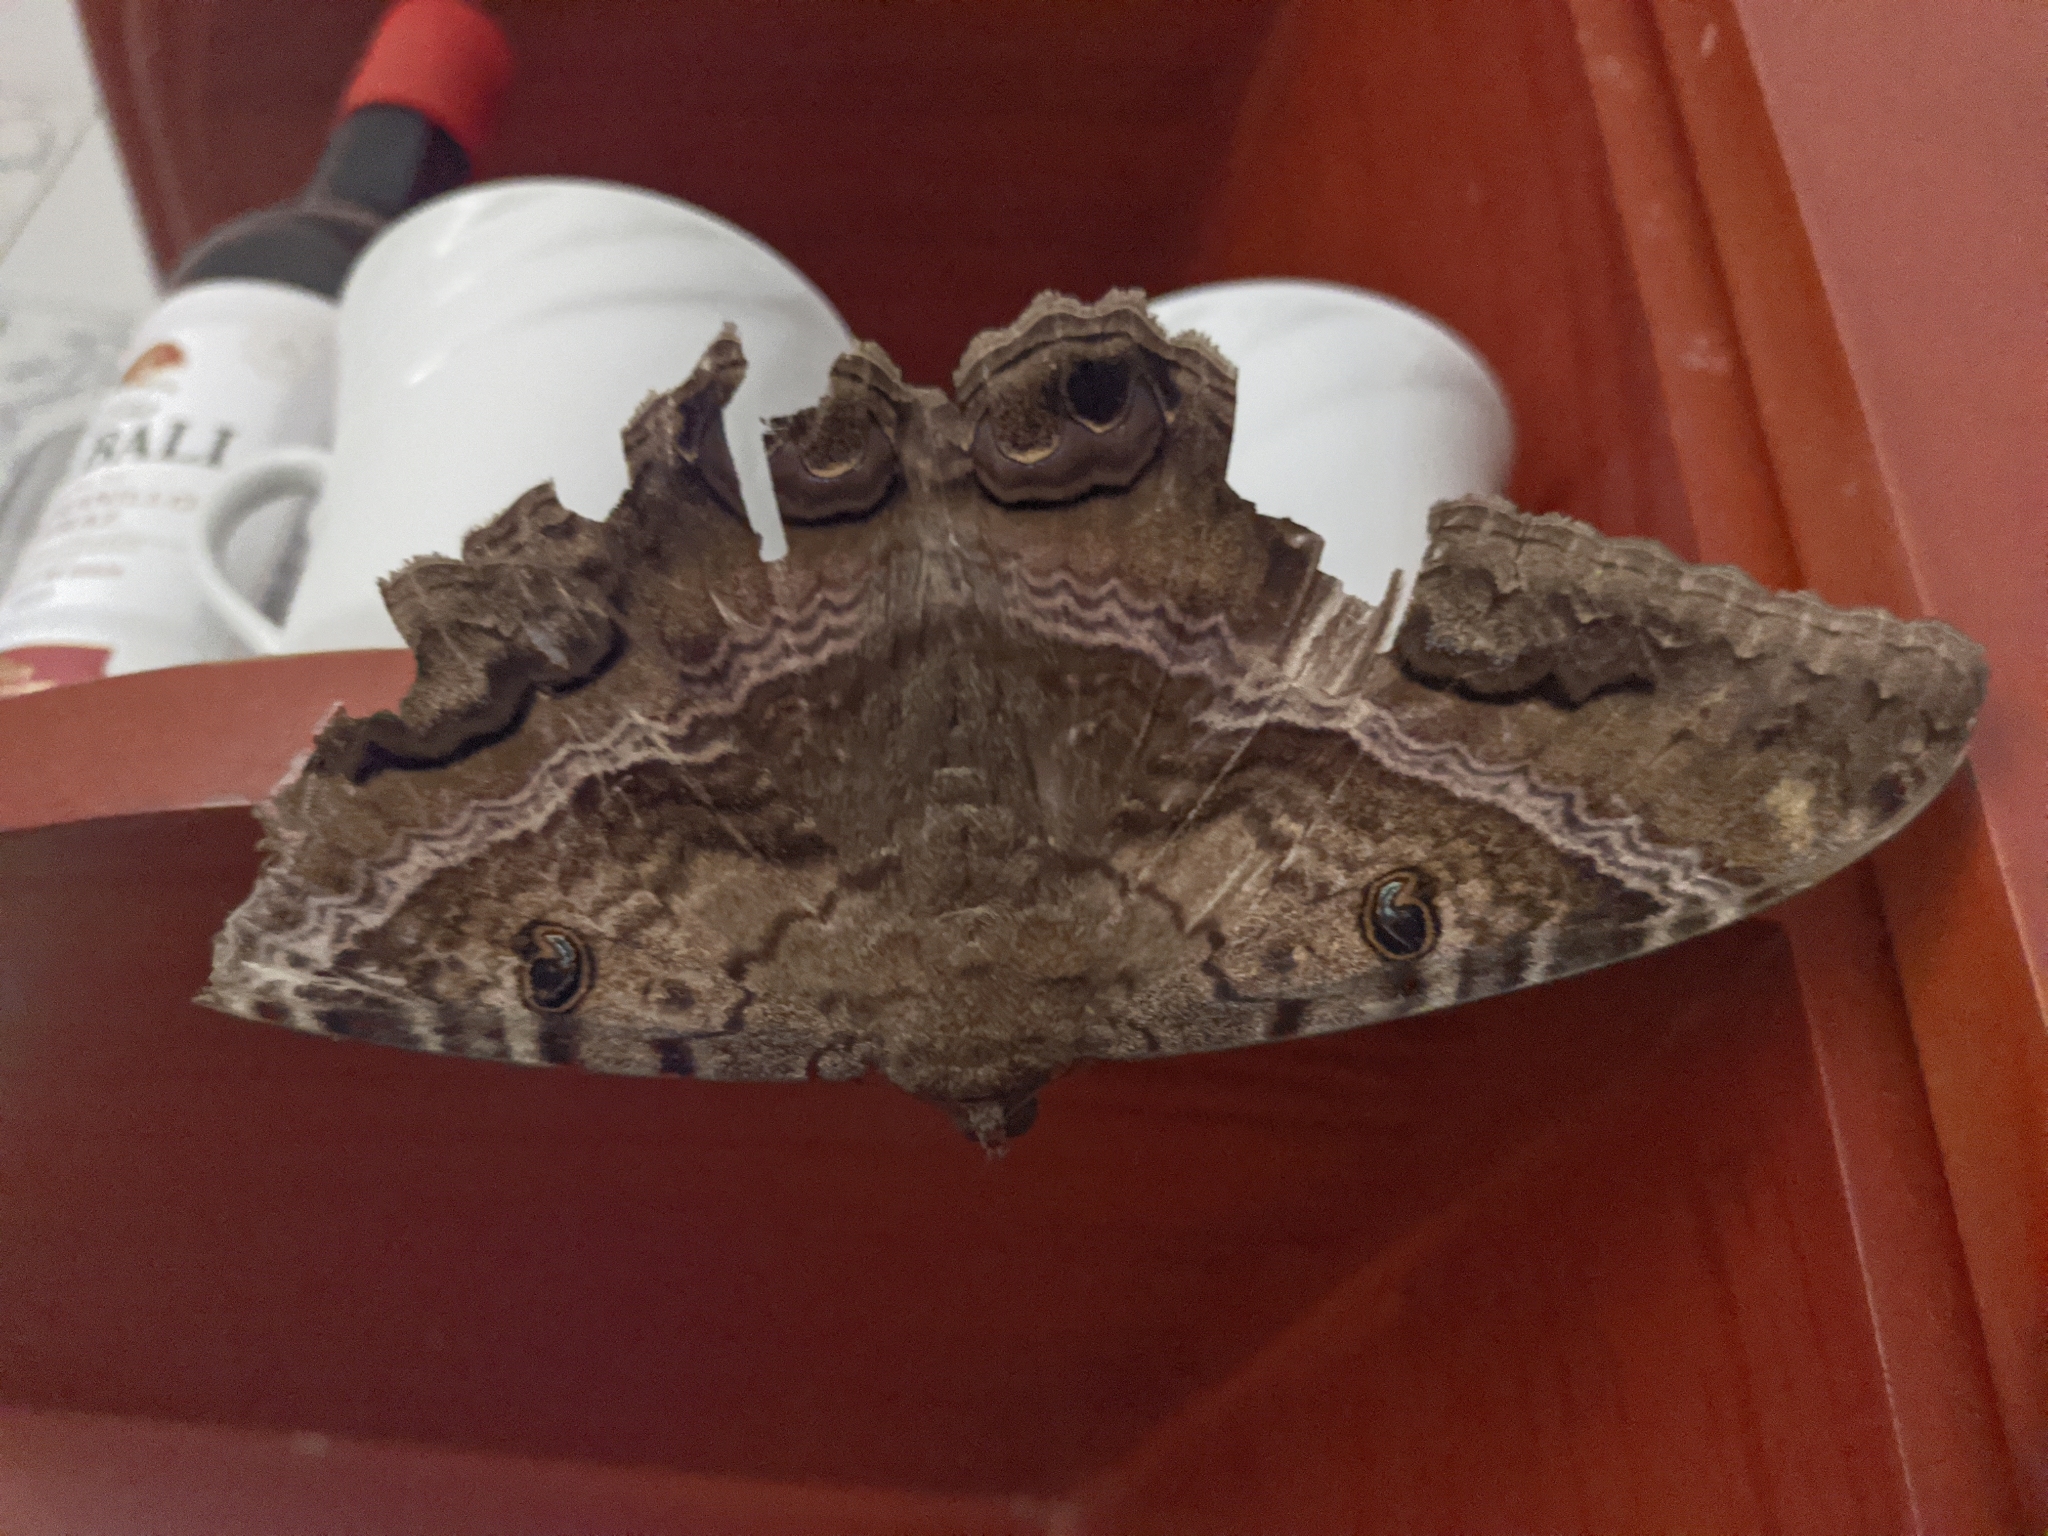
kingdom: Animalia
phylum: Arthropoda
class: Insecta
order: Lepidoptera
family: Erebidae
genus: Ascalapha
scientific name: Ascalapha odorata
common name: Black witch
